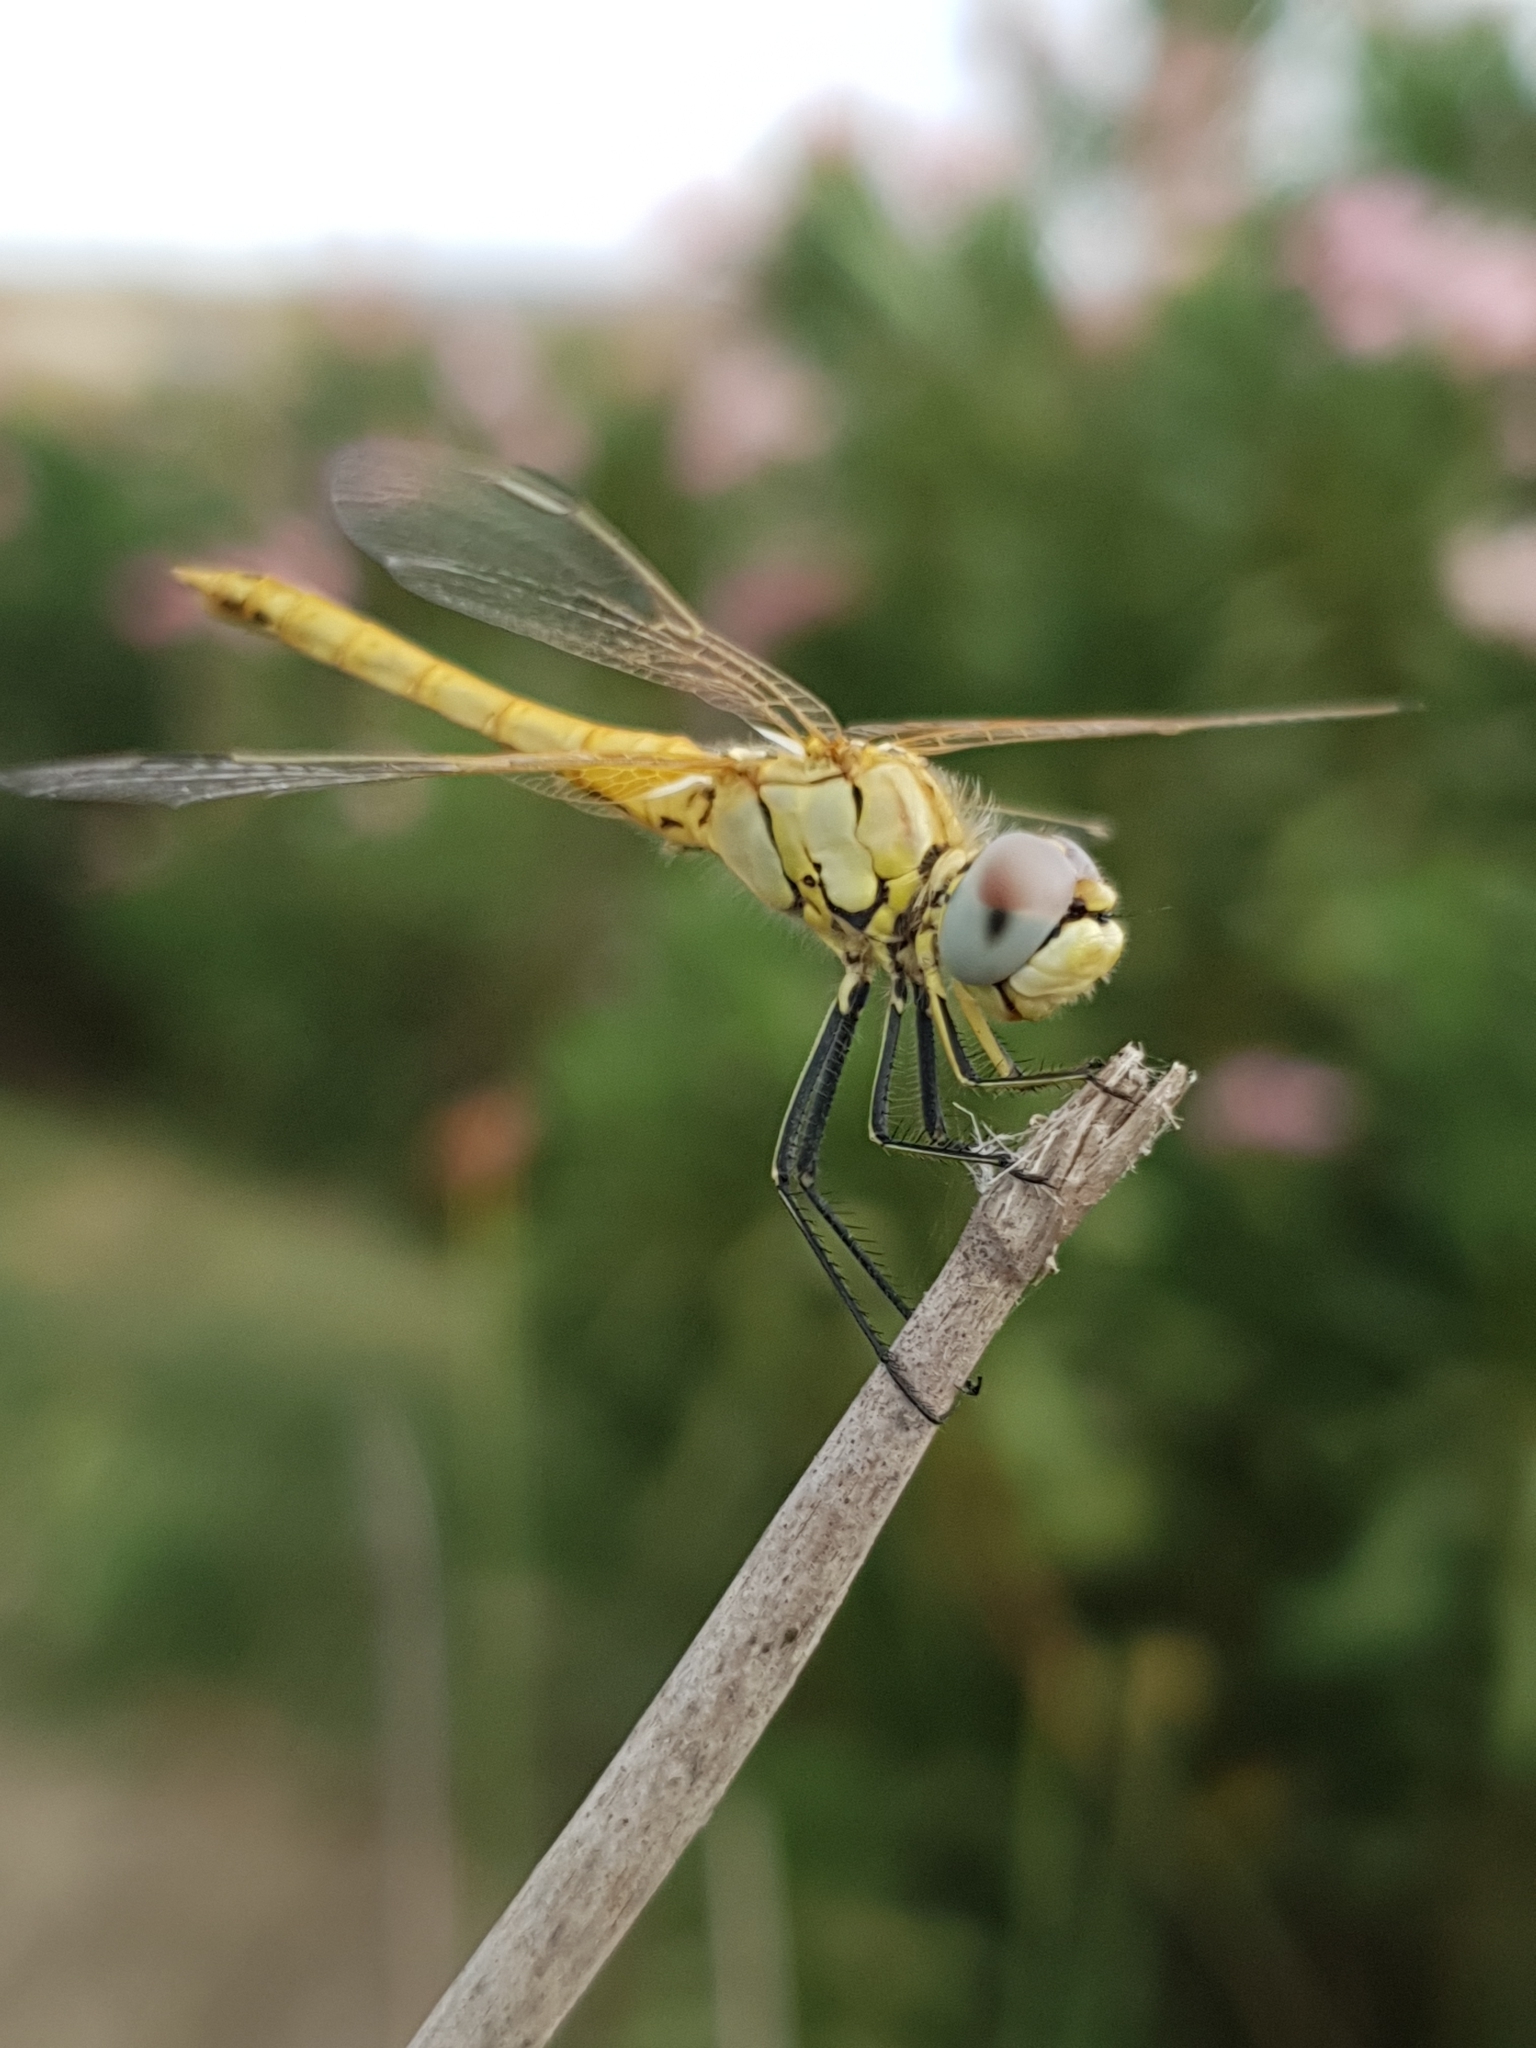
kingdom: Animalia
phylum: Arthropoda
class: Insecta
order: Odonata
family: Libellulidae
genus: Sympetrum
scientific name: Sympetrum fonscolombii
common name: Red-veined darter
